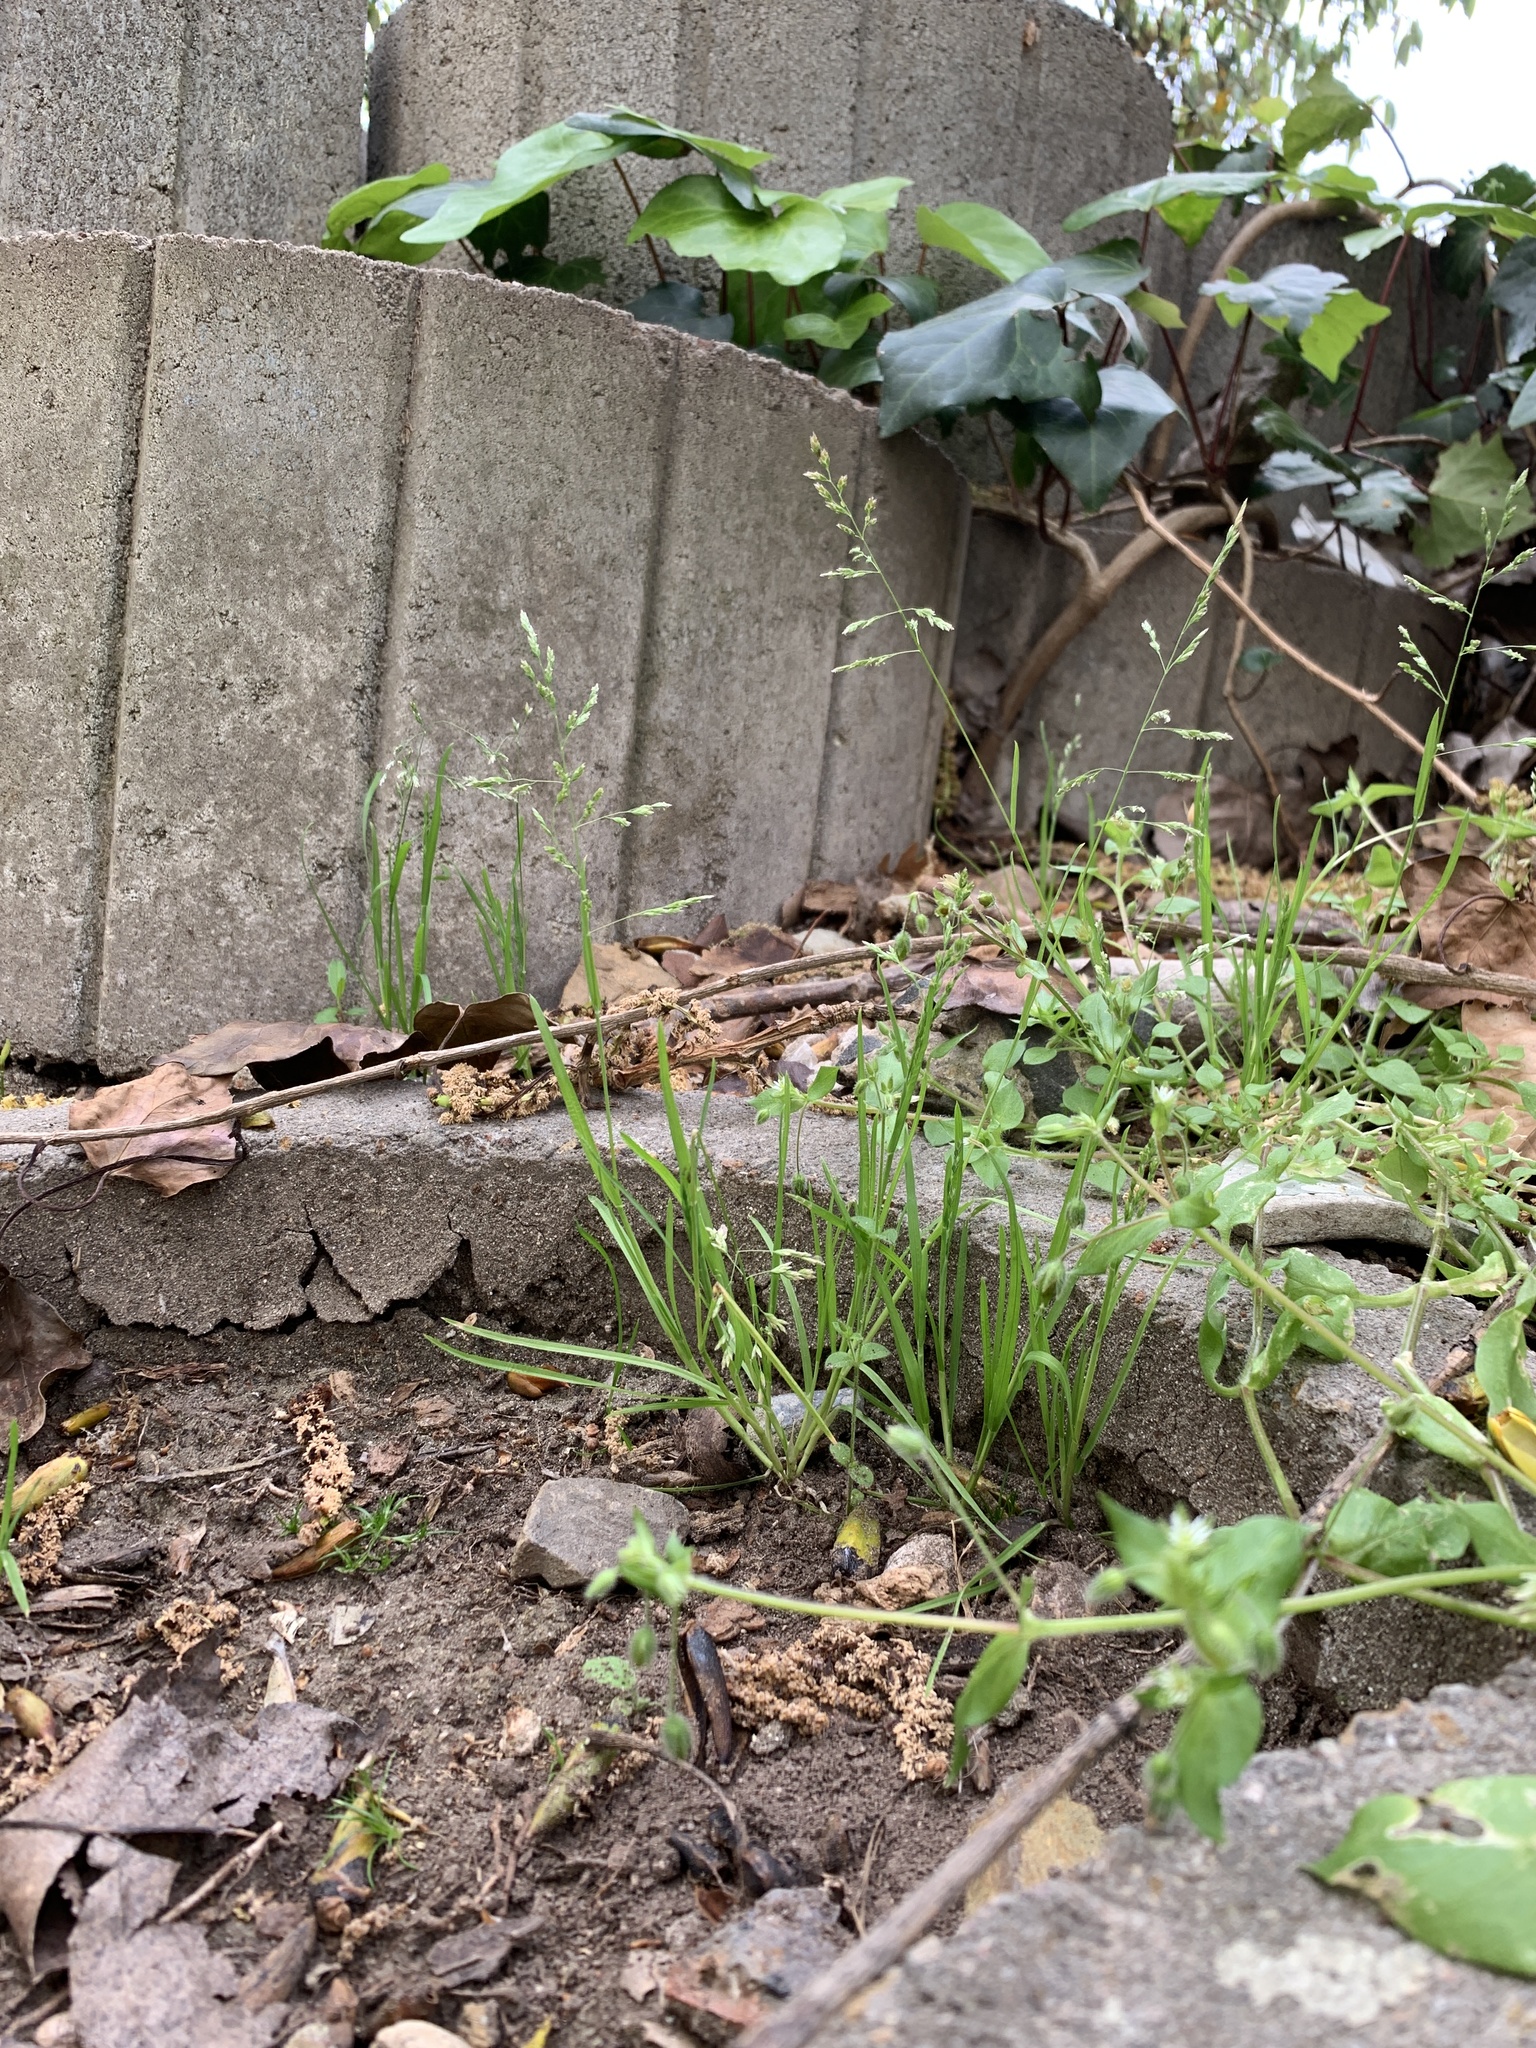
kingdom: Plantae
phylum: Tracheophyta
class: Liliopsida
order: Poales
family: Poaceae
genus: Poa
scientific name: Poa annua
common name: Annual bluegrass
